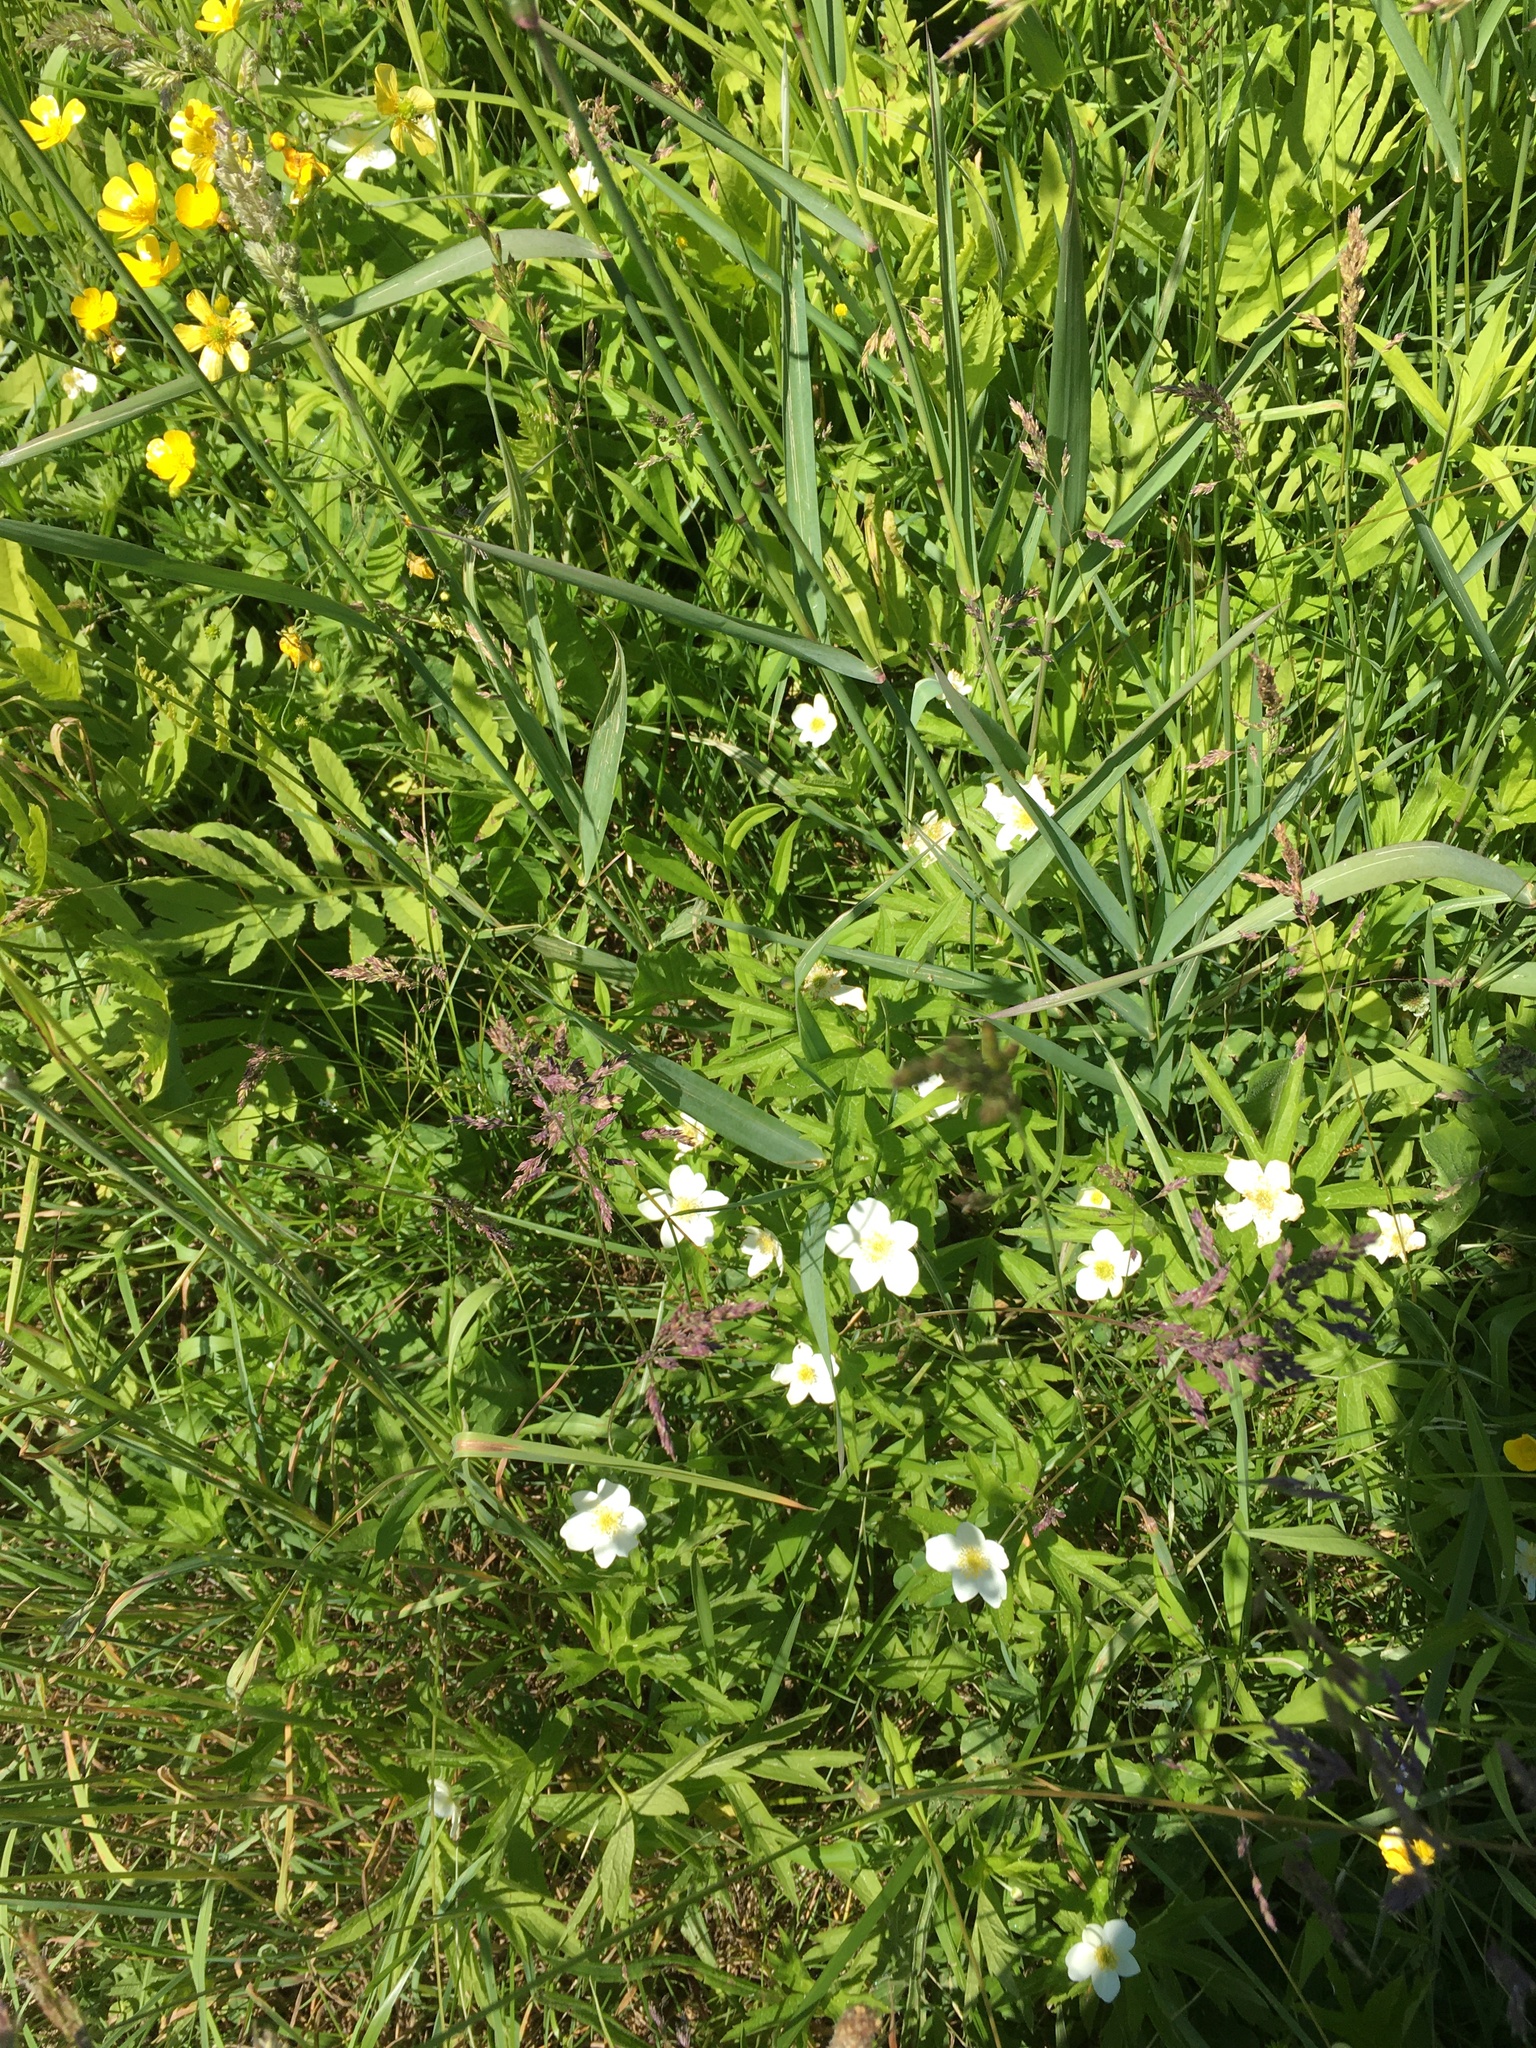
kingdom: Plantae
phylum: Tracheophyta
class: Magnoliopsida
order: Ranunculales
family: Ranunculaceae
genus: Anemonastrum
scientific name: Anemonastrum canadense
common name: Canada anemone
